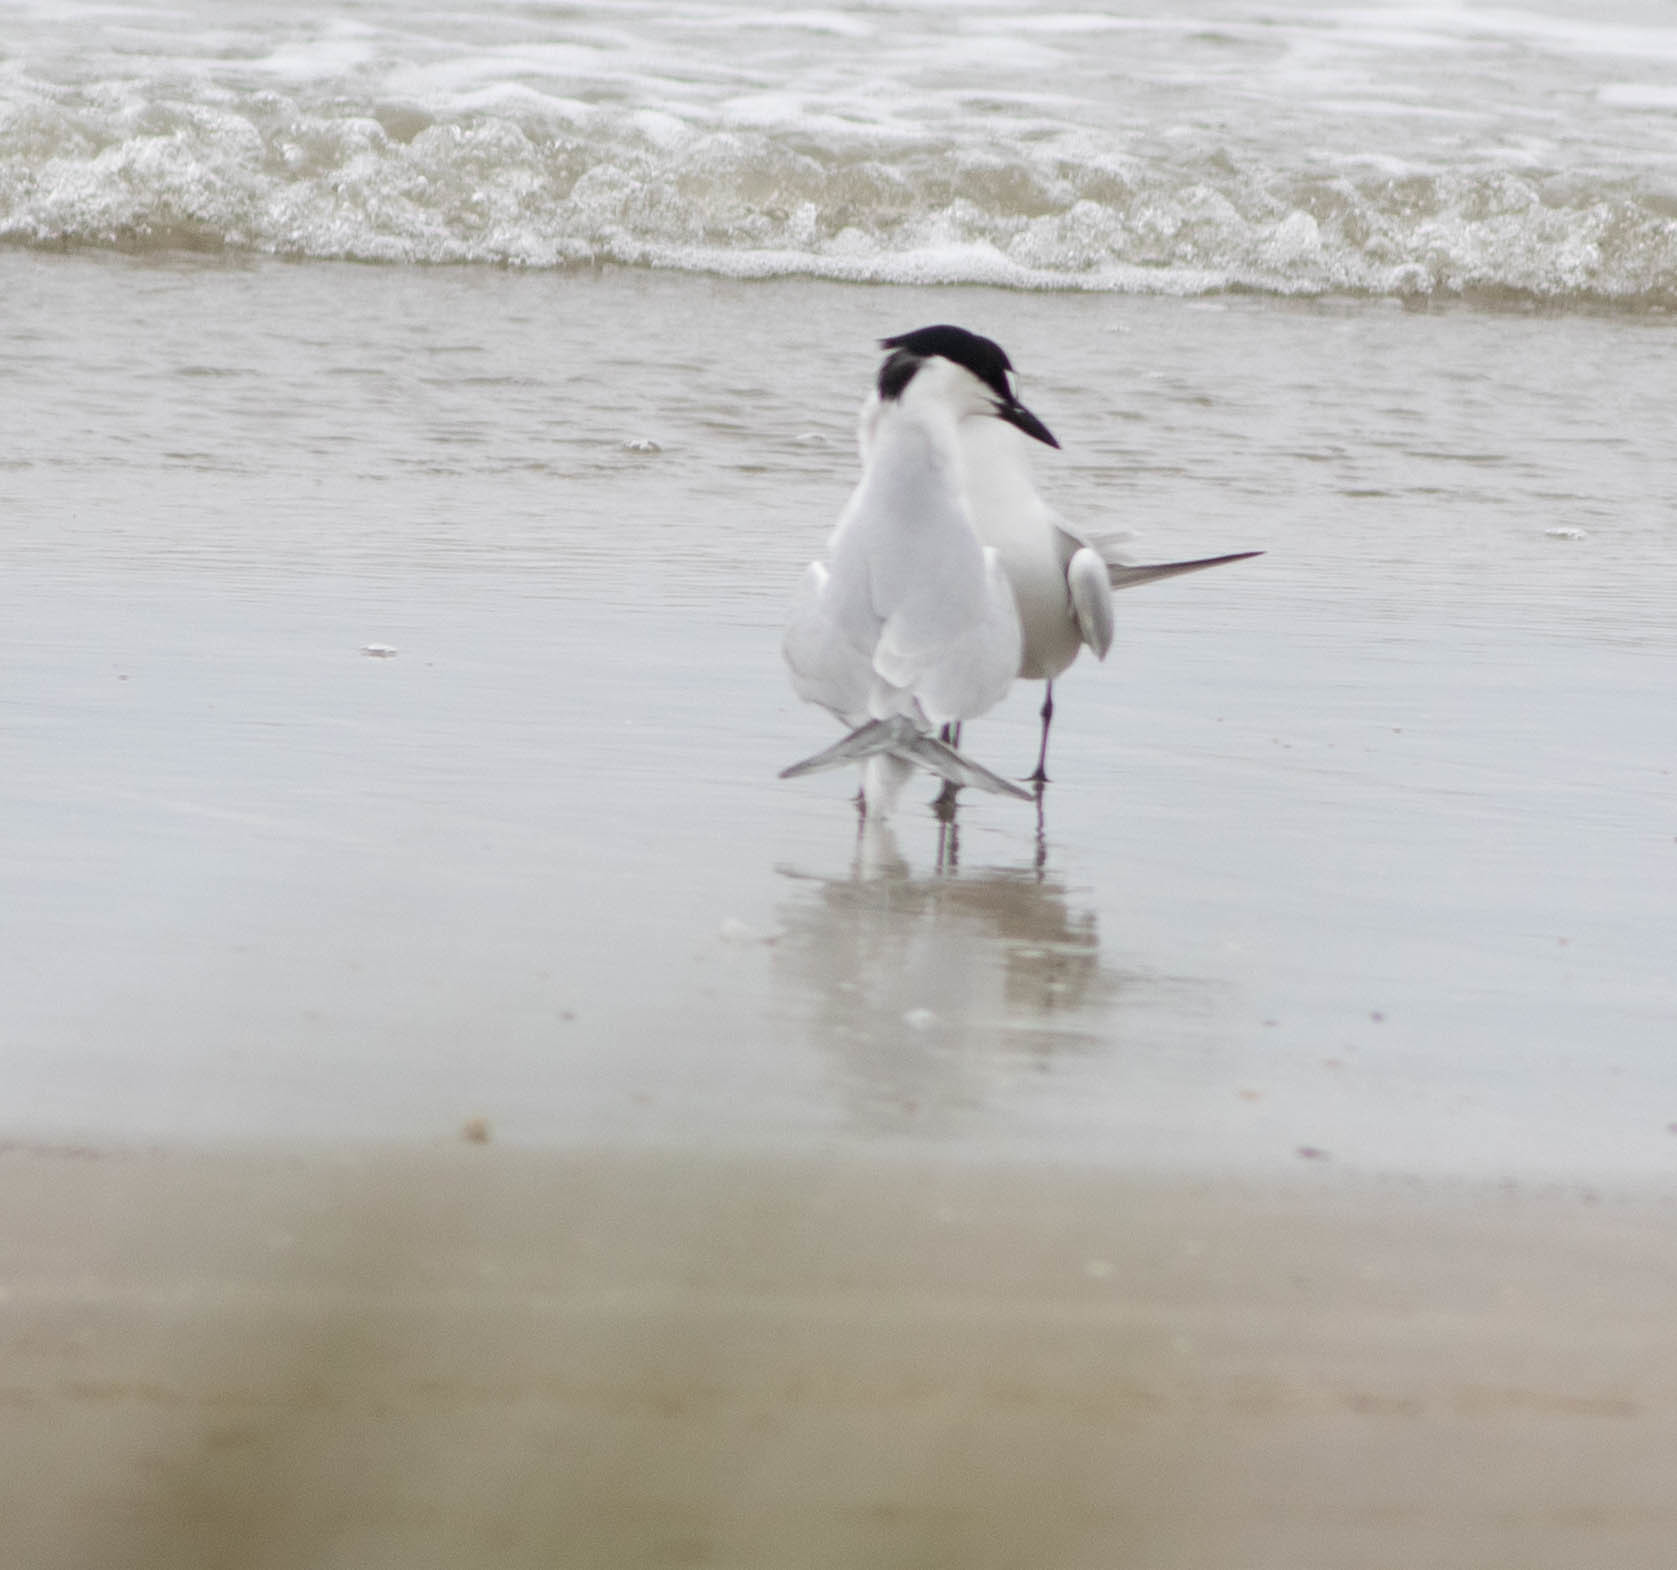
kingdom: Animalia
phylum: Chordata
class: Aves
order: Charadriiformes
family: Laridae
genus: Gelochelidon
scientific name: Gelochelidon nilotica
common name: Gull-billed tern
